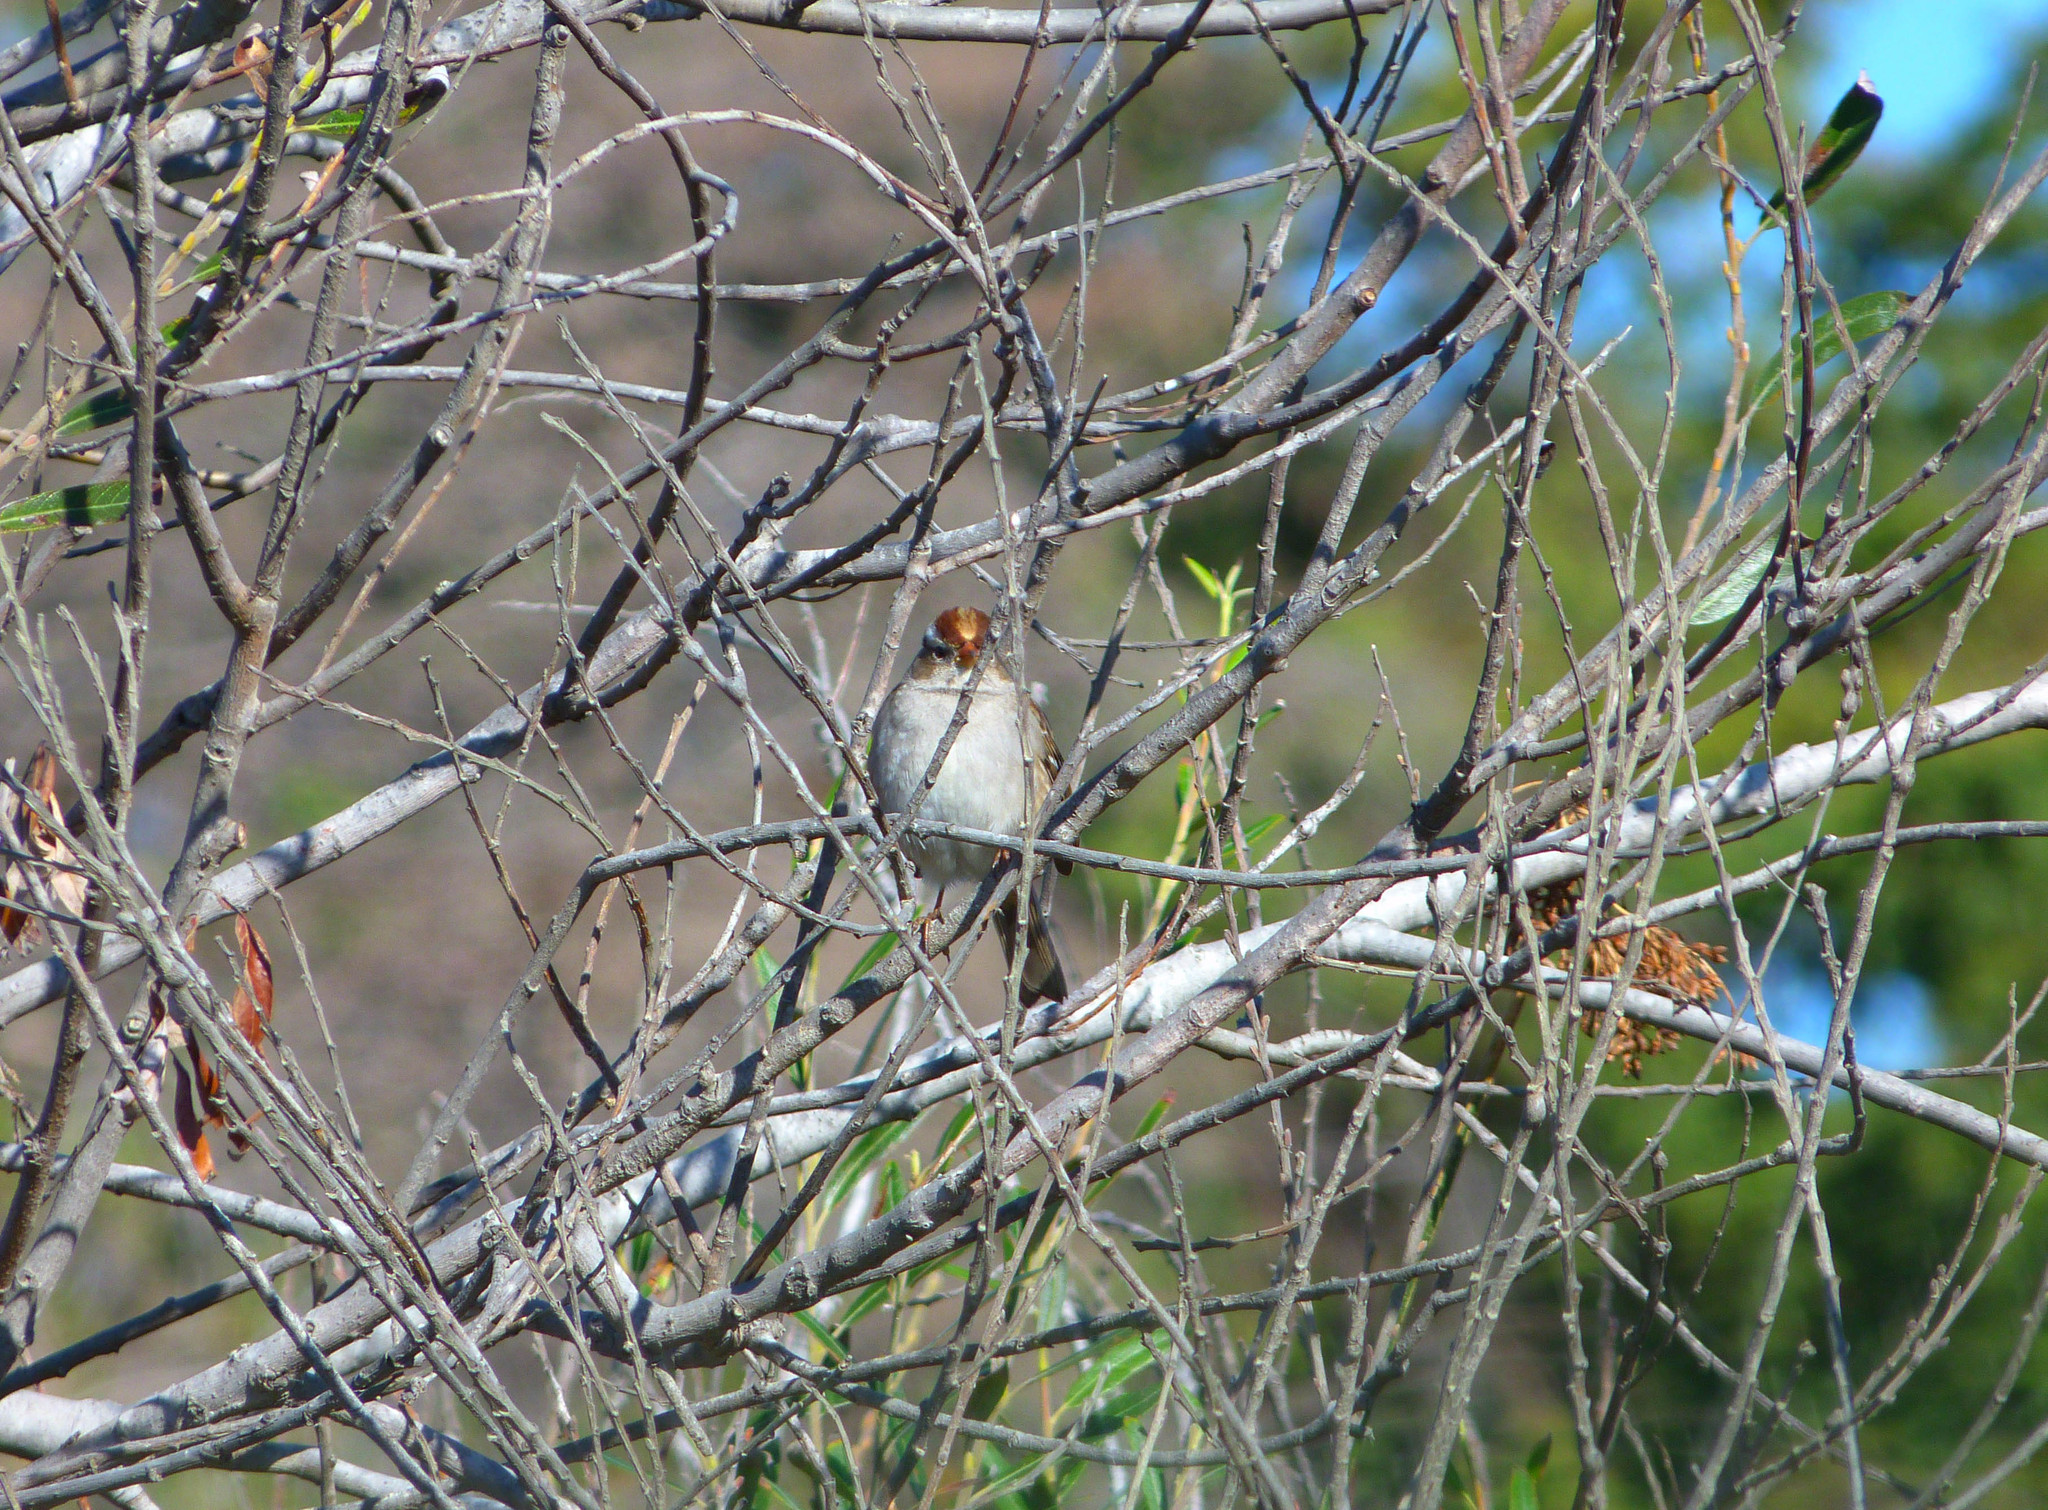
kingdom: Animalia
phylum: Chordata
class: Aves
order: Passeriformes
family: Passerellidae
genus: Zonotrichia
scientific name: Zonotrichia leucophrys
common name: White-crowned sparrow
